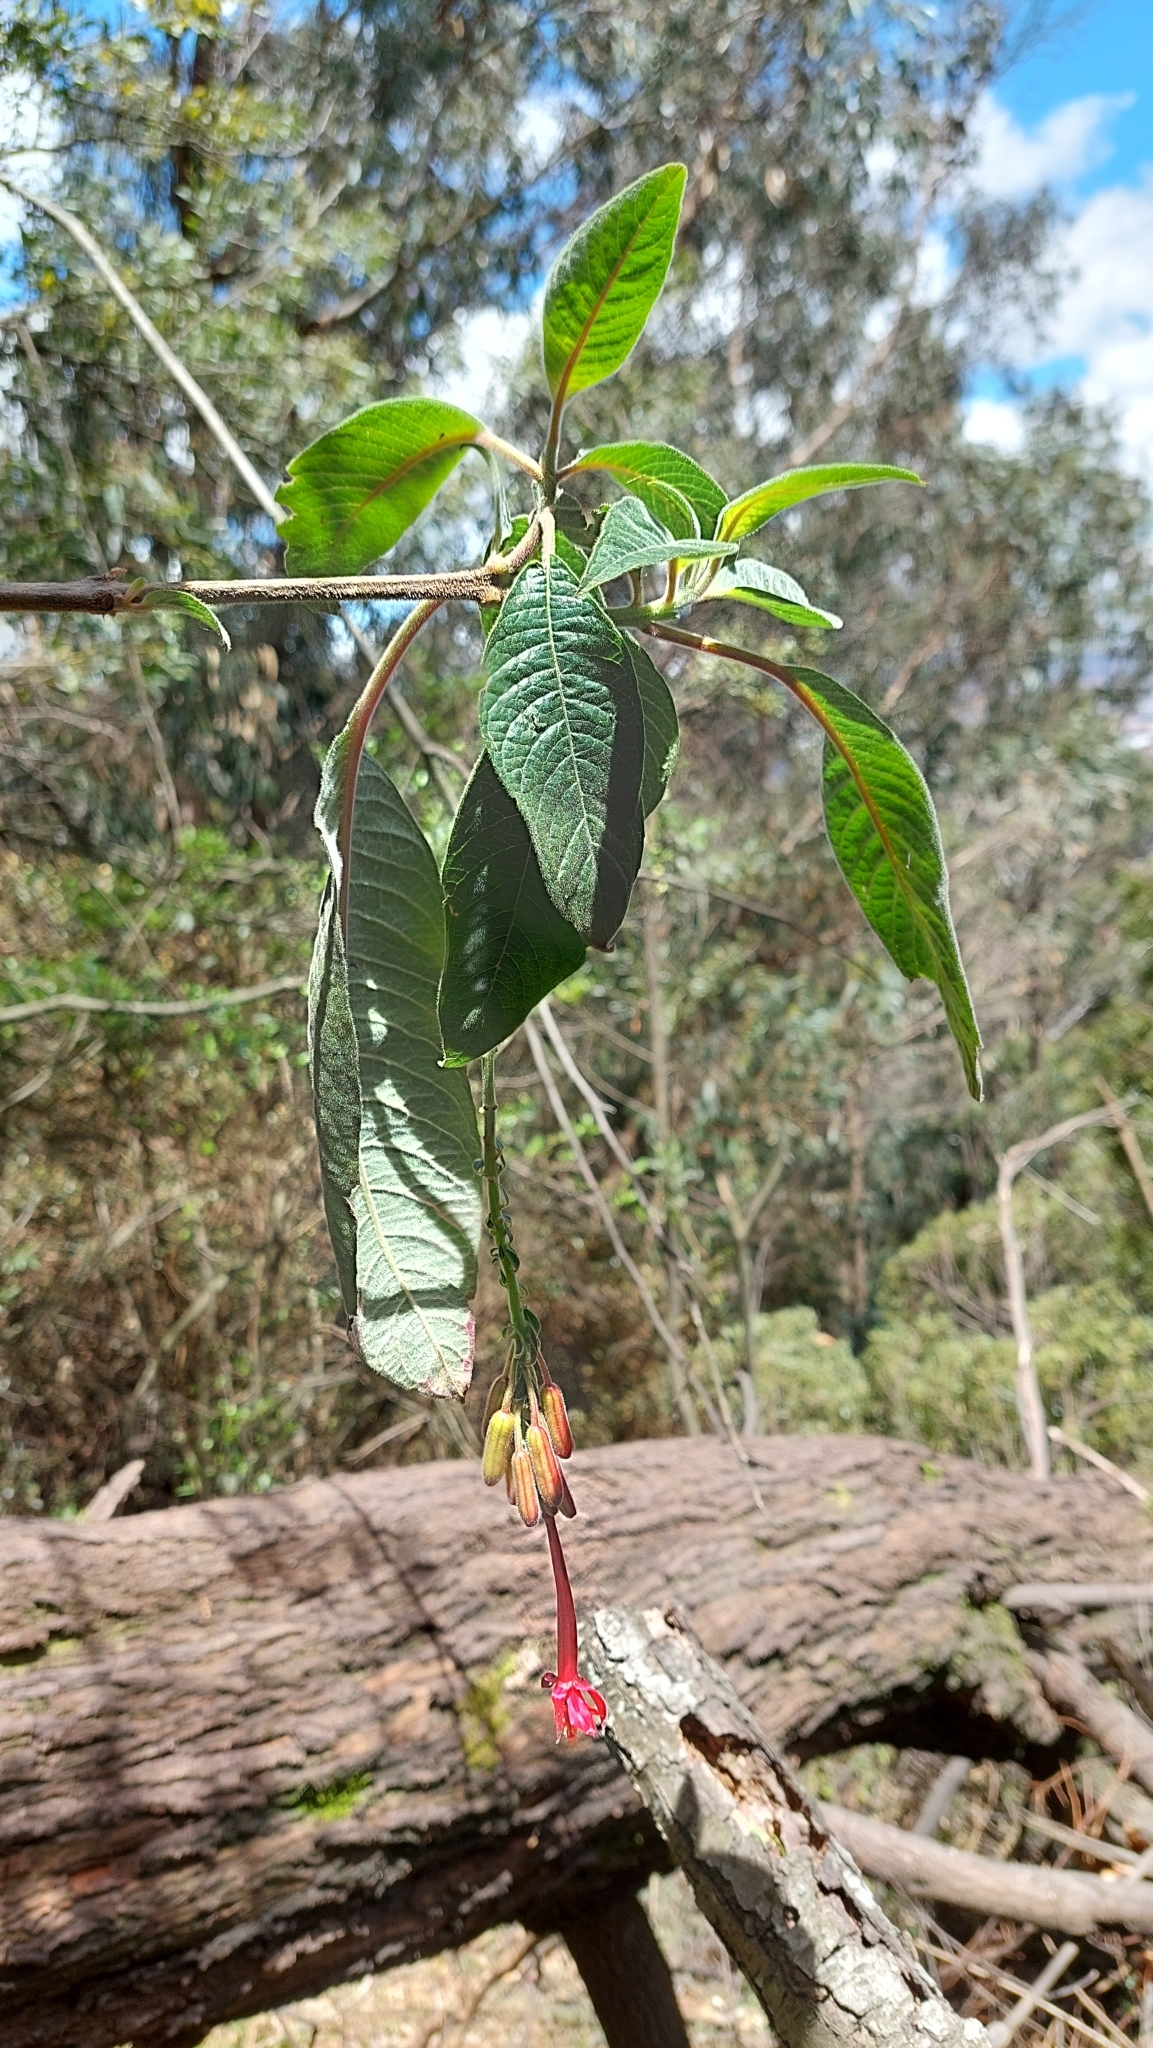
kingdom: Plantae
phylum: Tracheophyta
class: Magnoliopsida
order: Myrtales
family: Onagraceae
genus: Fuchsia
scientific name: Fuchsia boliviana
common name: Bolivian fuchsia
